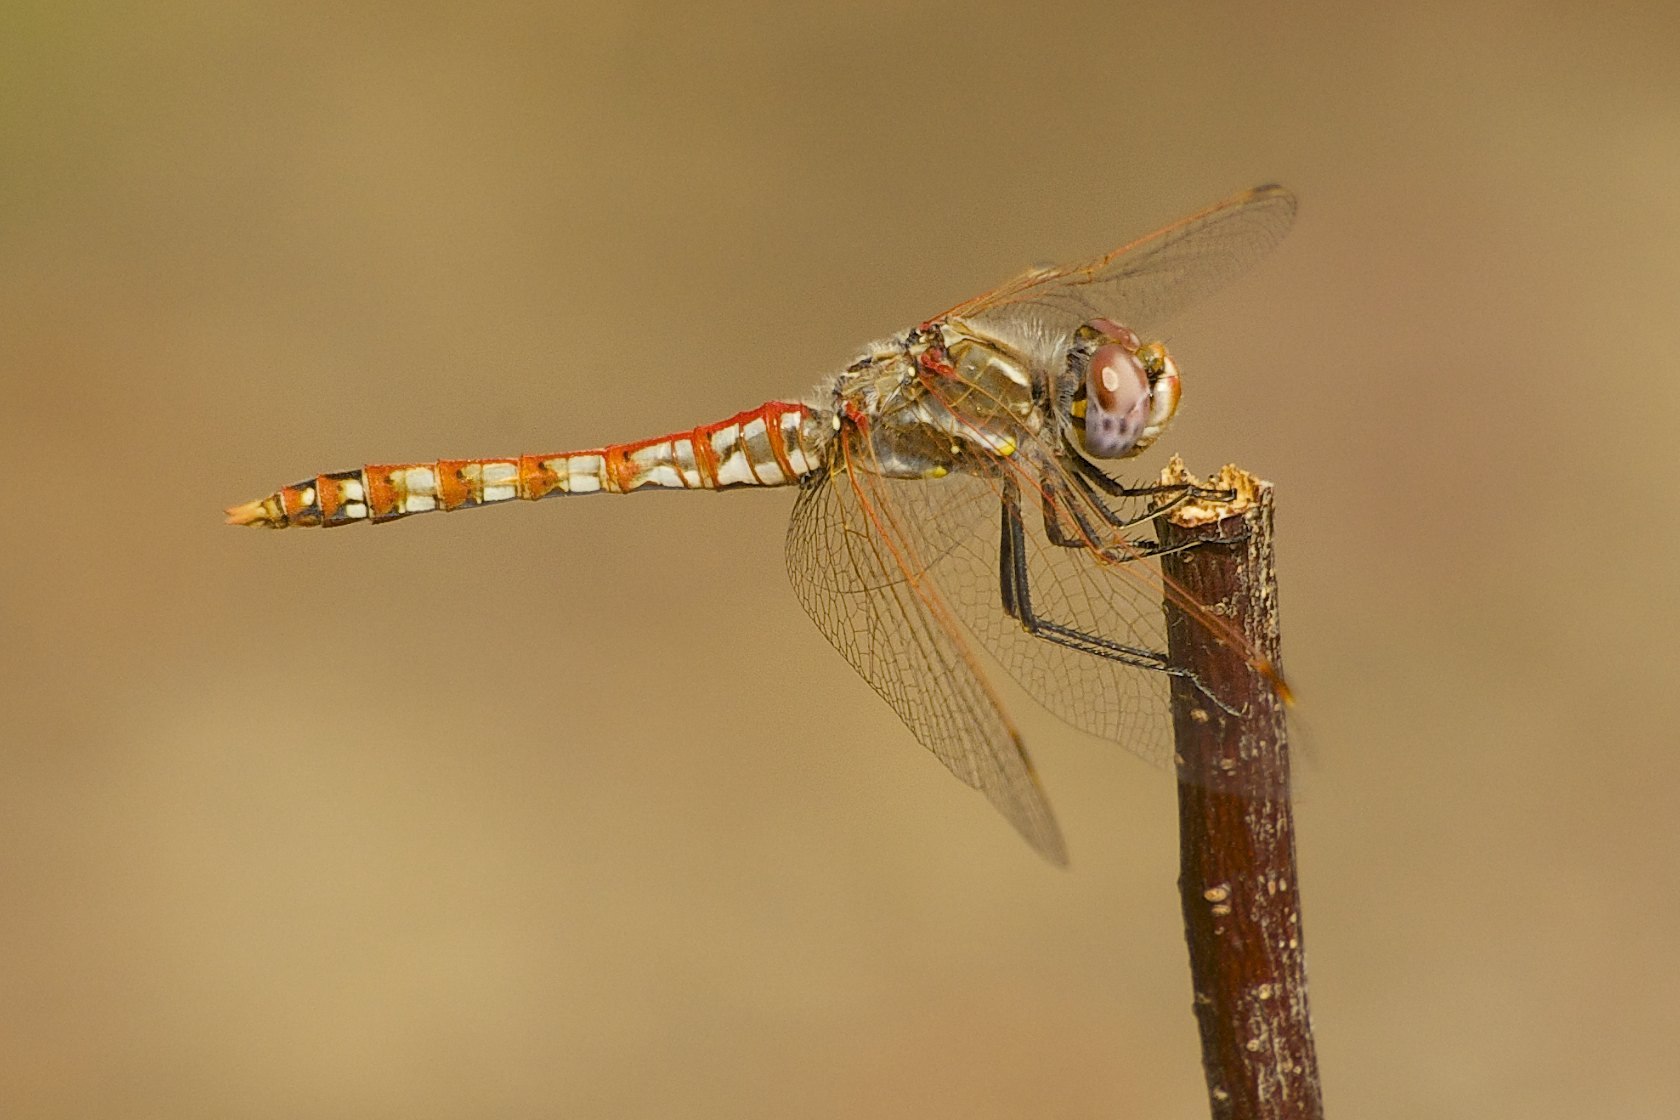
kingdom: Animalia
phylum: Arthropoda
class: Insecta
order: Odonata
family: Libellulidae
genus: Sympetrum
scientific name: Sympetrum corruptum
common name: Variegated meadowhawk
